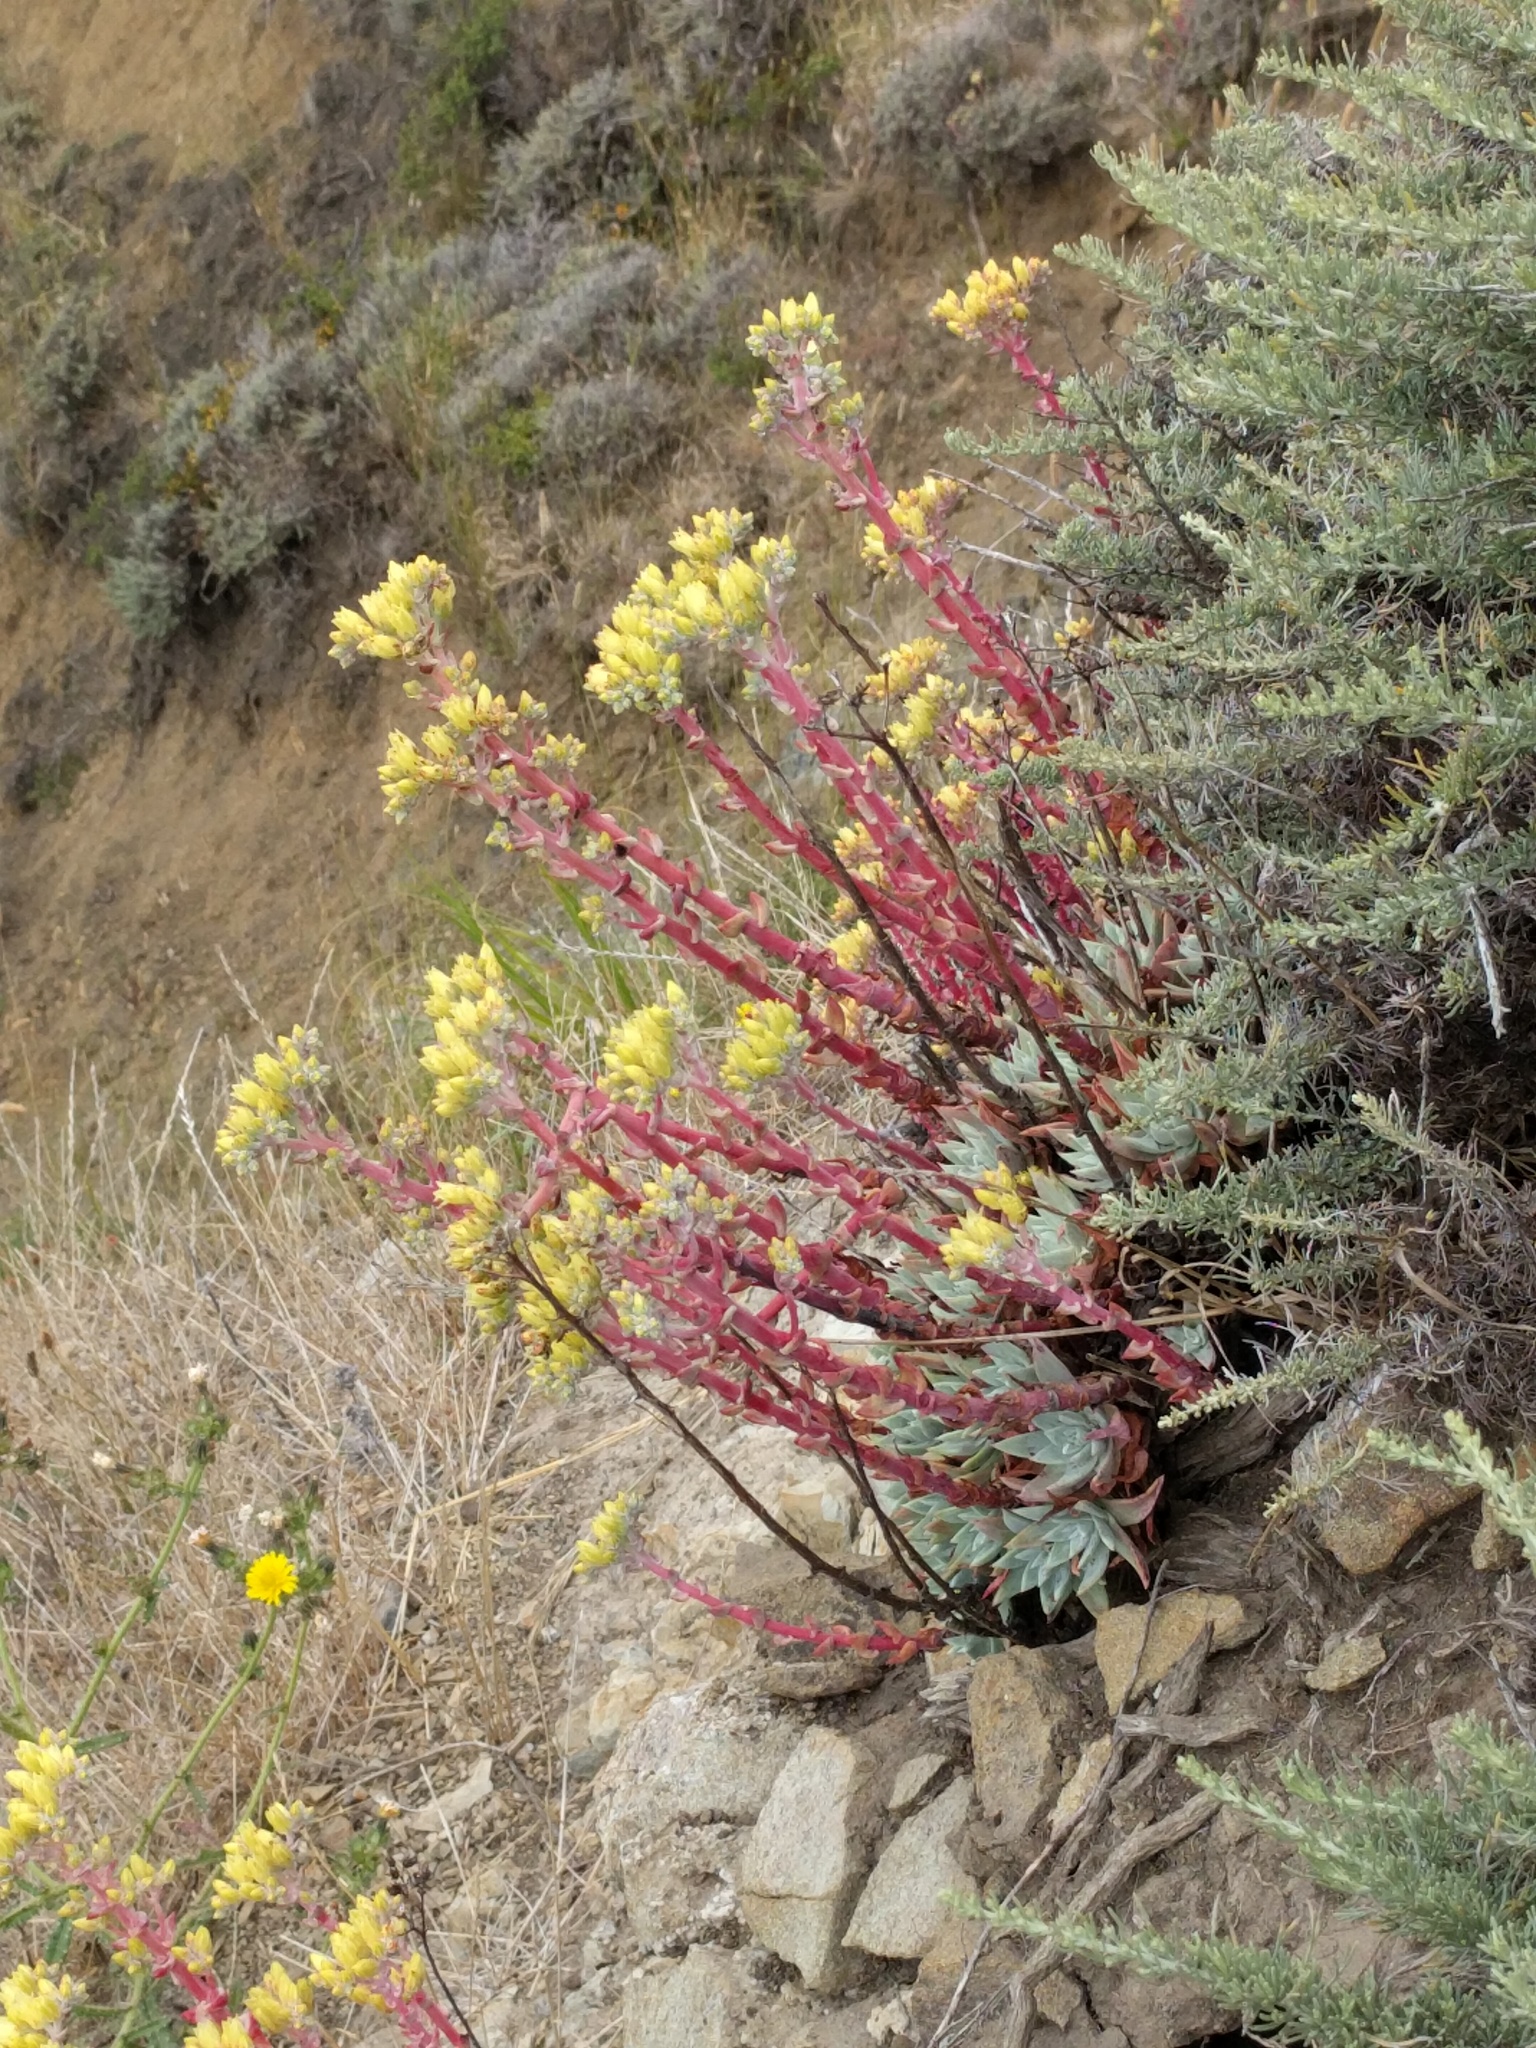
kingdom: Plantae
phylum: Tracheophyta
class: Magnoliopsida
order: Saxifragales
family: Crassulaceae
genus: Dudleya
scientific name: Dudleya farinosa
